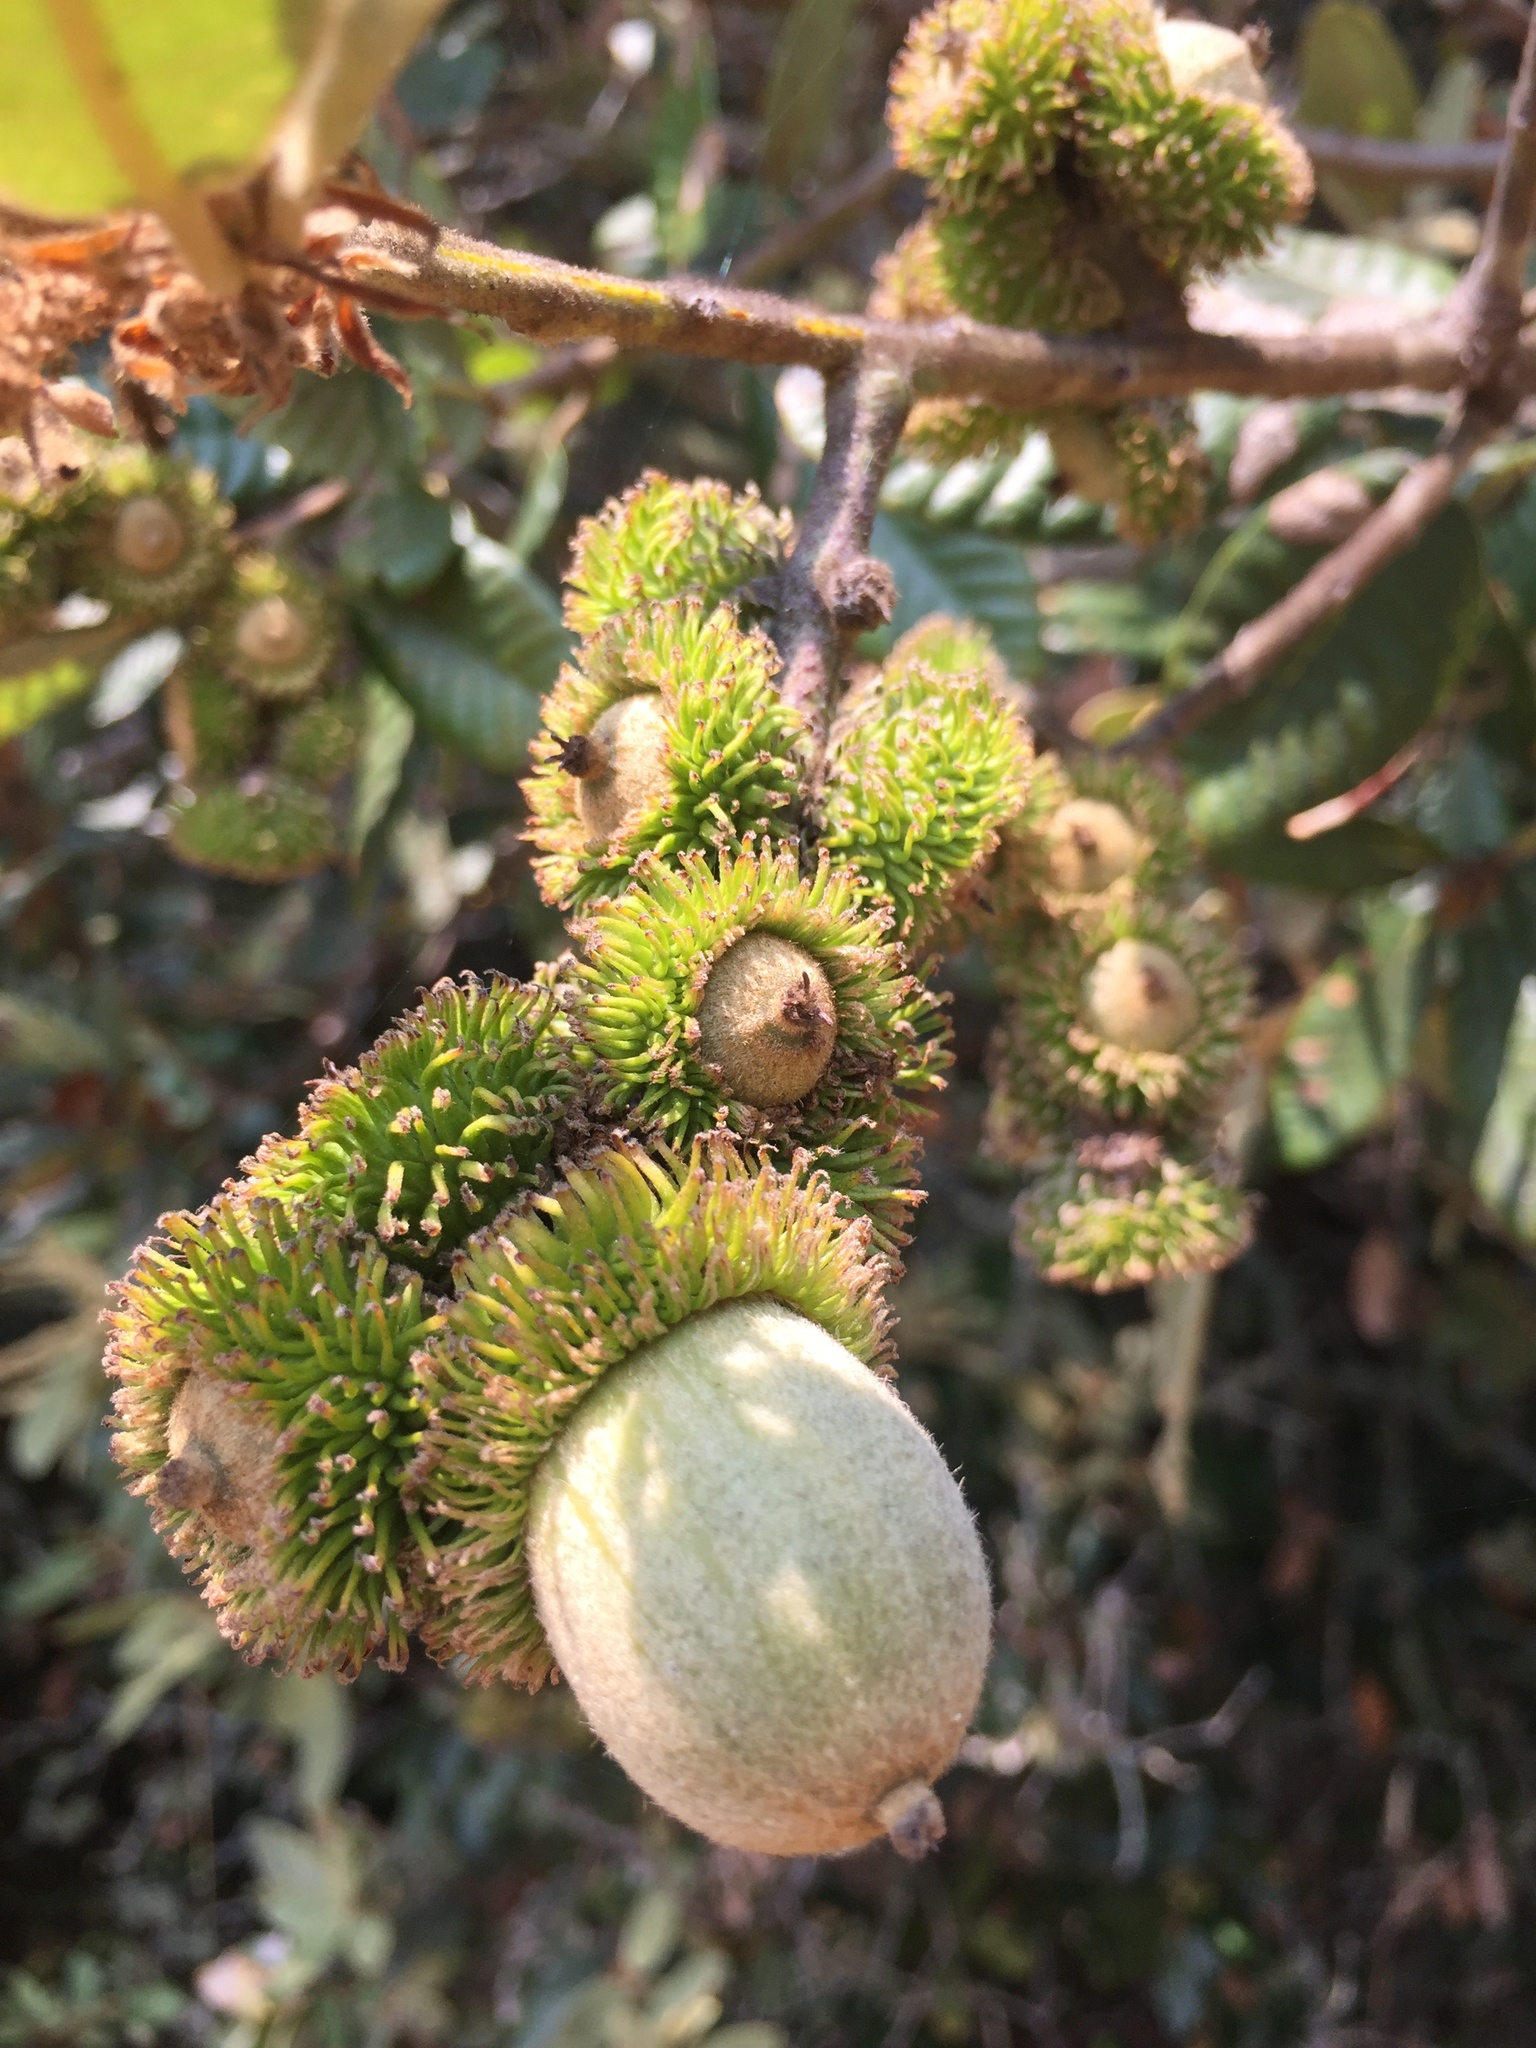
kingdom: Plantae
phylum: Tracheophyta
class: Magnoliopsida
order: Fagales
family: Fagaceae
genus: Notholithocarpus
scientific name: Notholithocarpus densiflorus
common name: Tan bark oak
